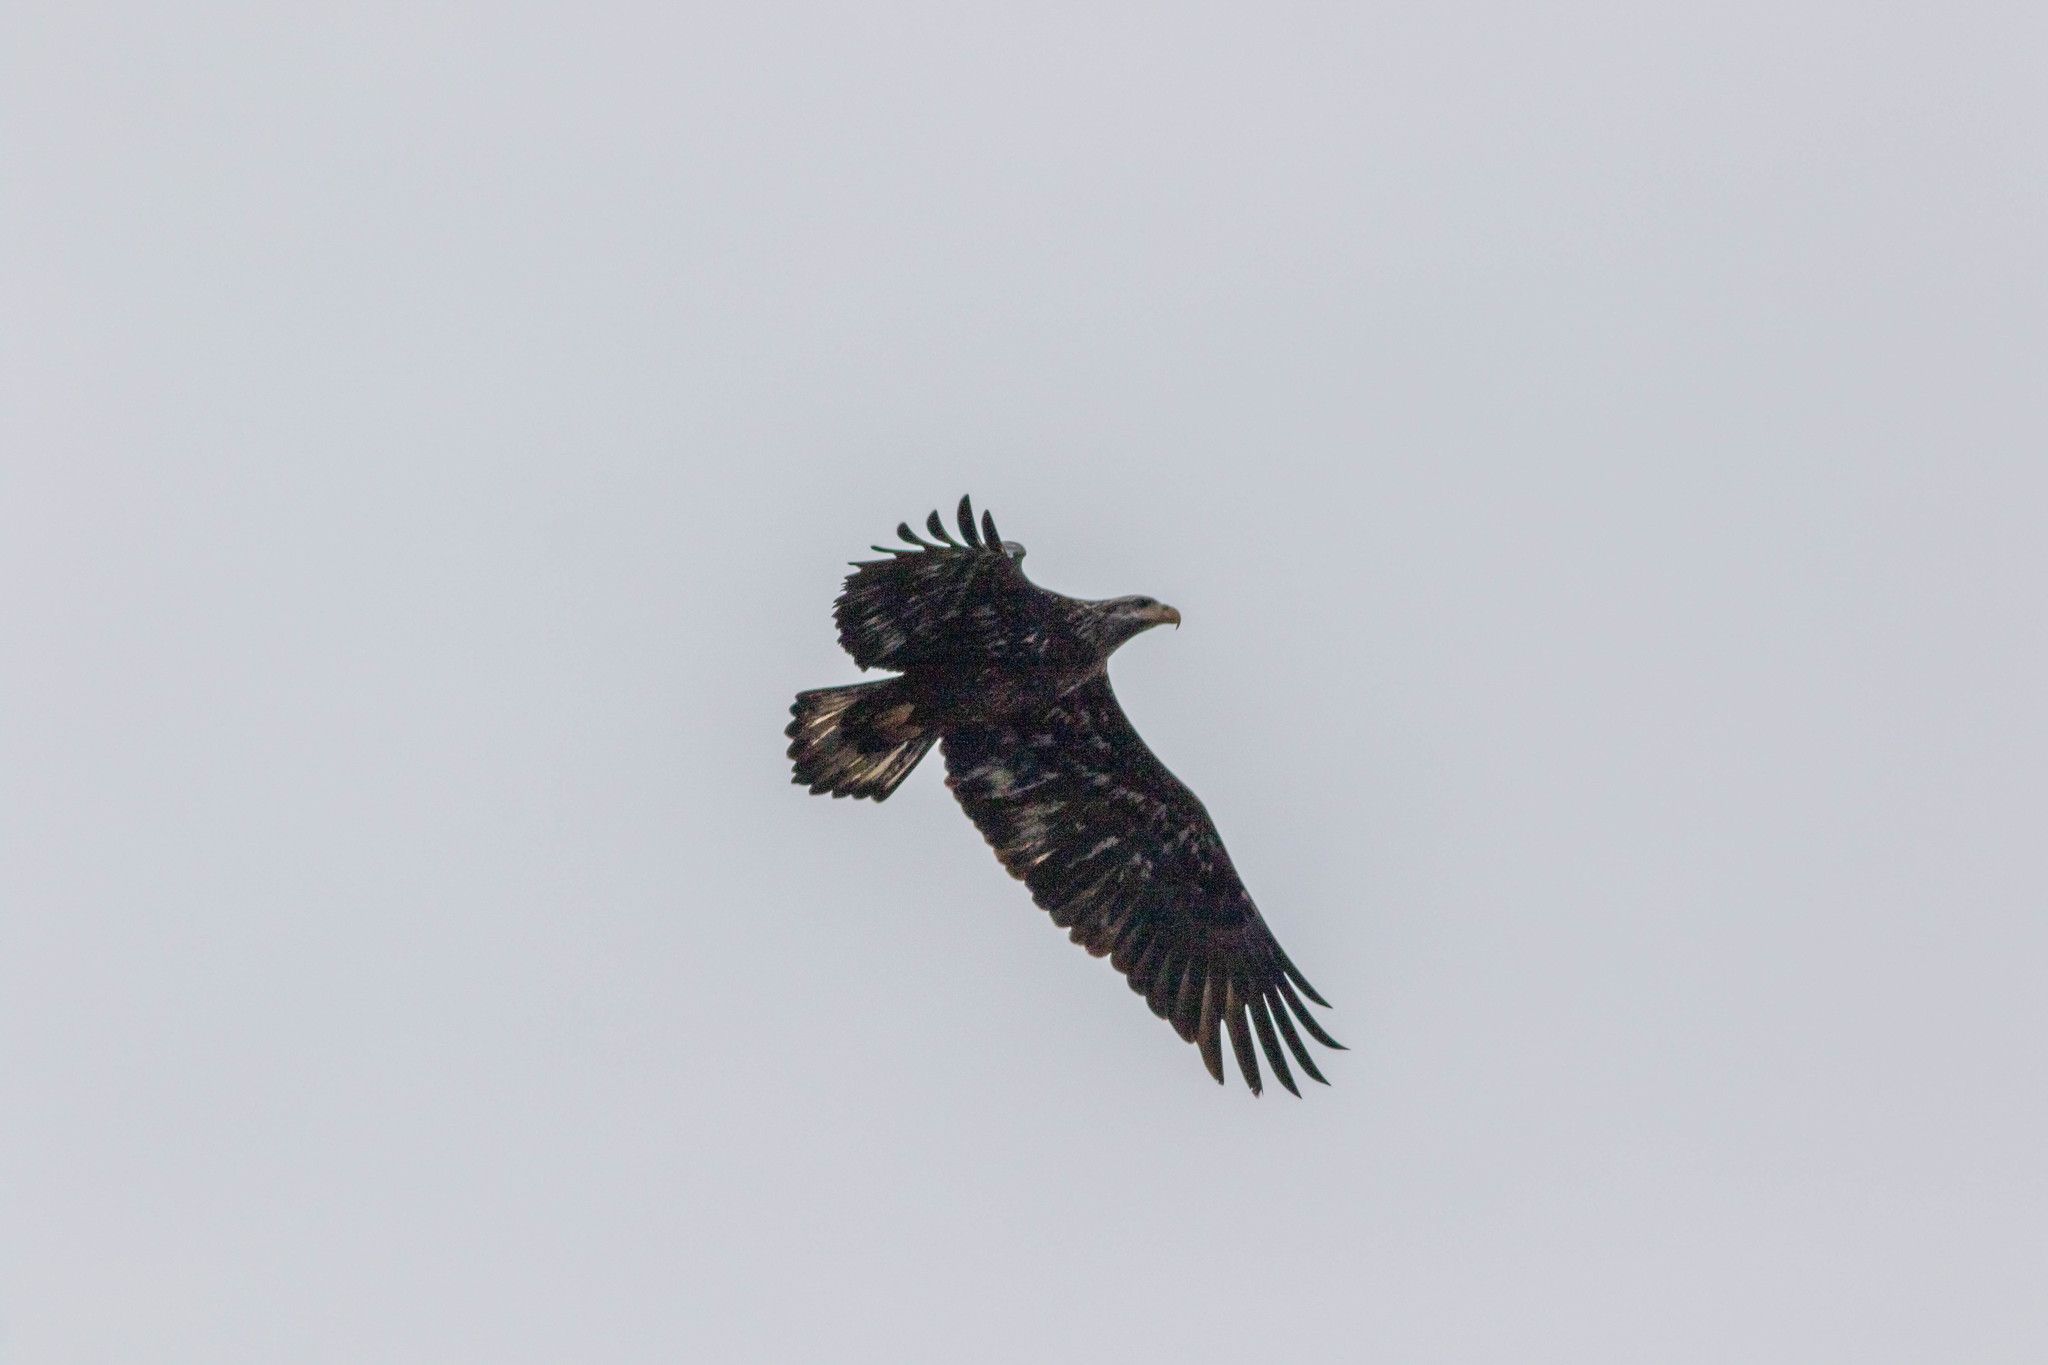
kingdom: Animalia
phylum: Chordata
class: Aves
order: Accipitriformes
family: Accipitridae
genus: Haliaeetus
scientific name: Haliaeetus leucocephalus
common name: Bald eagle
